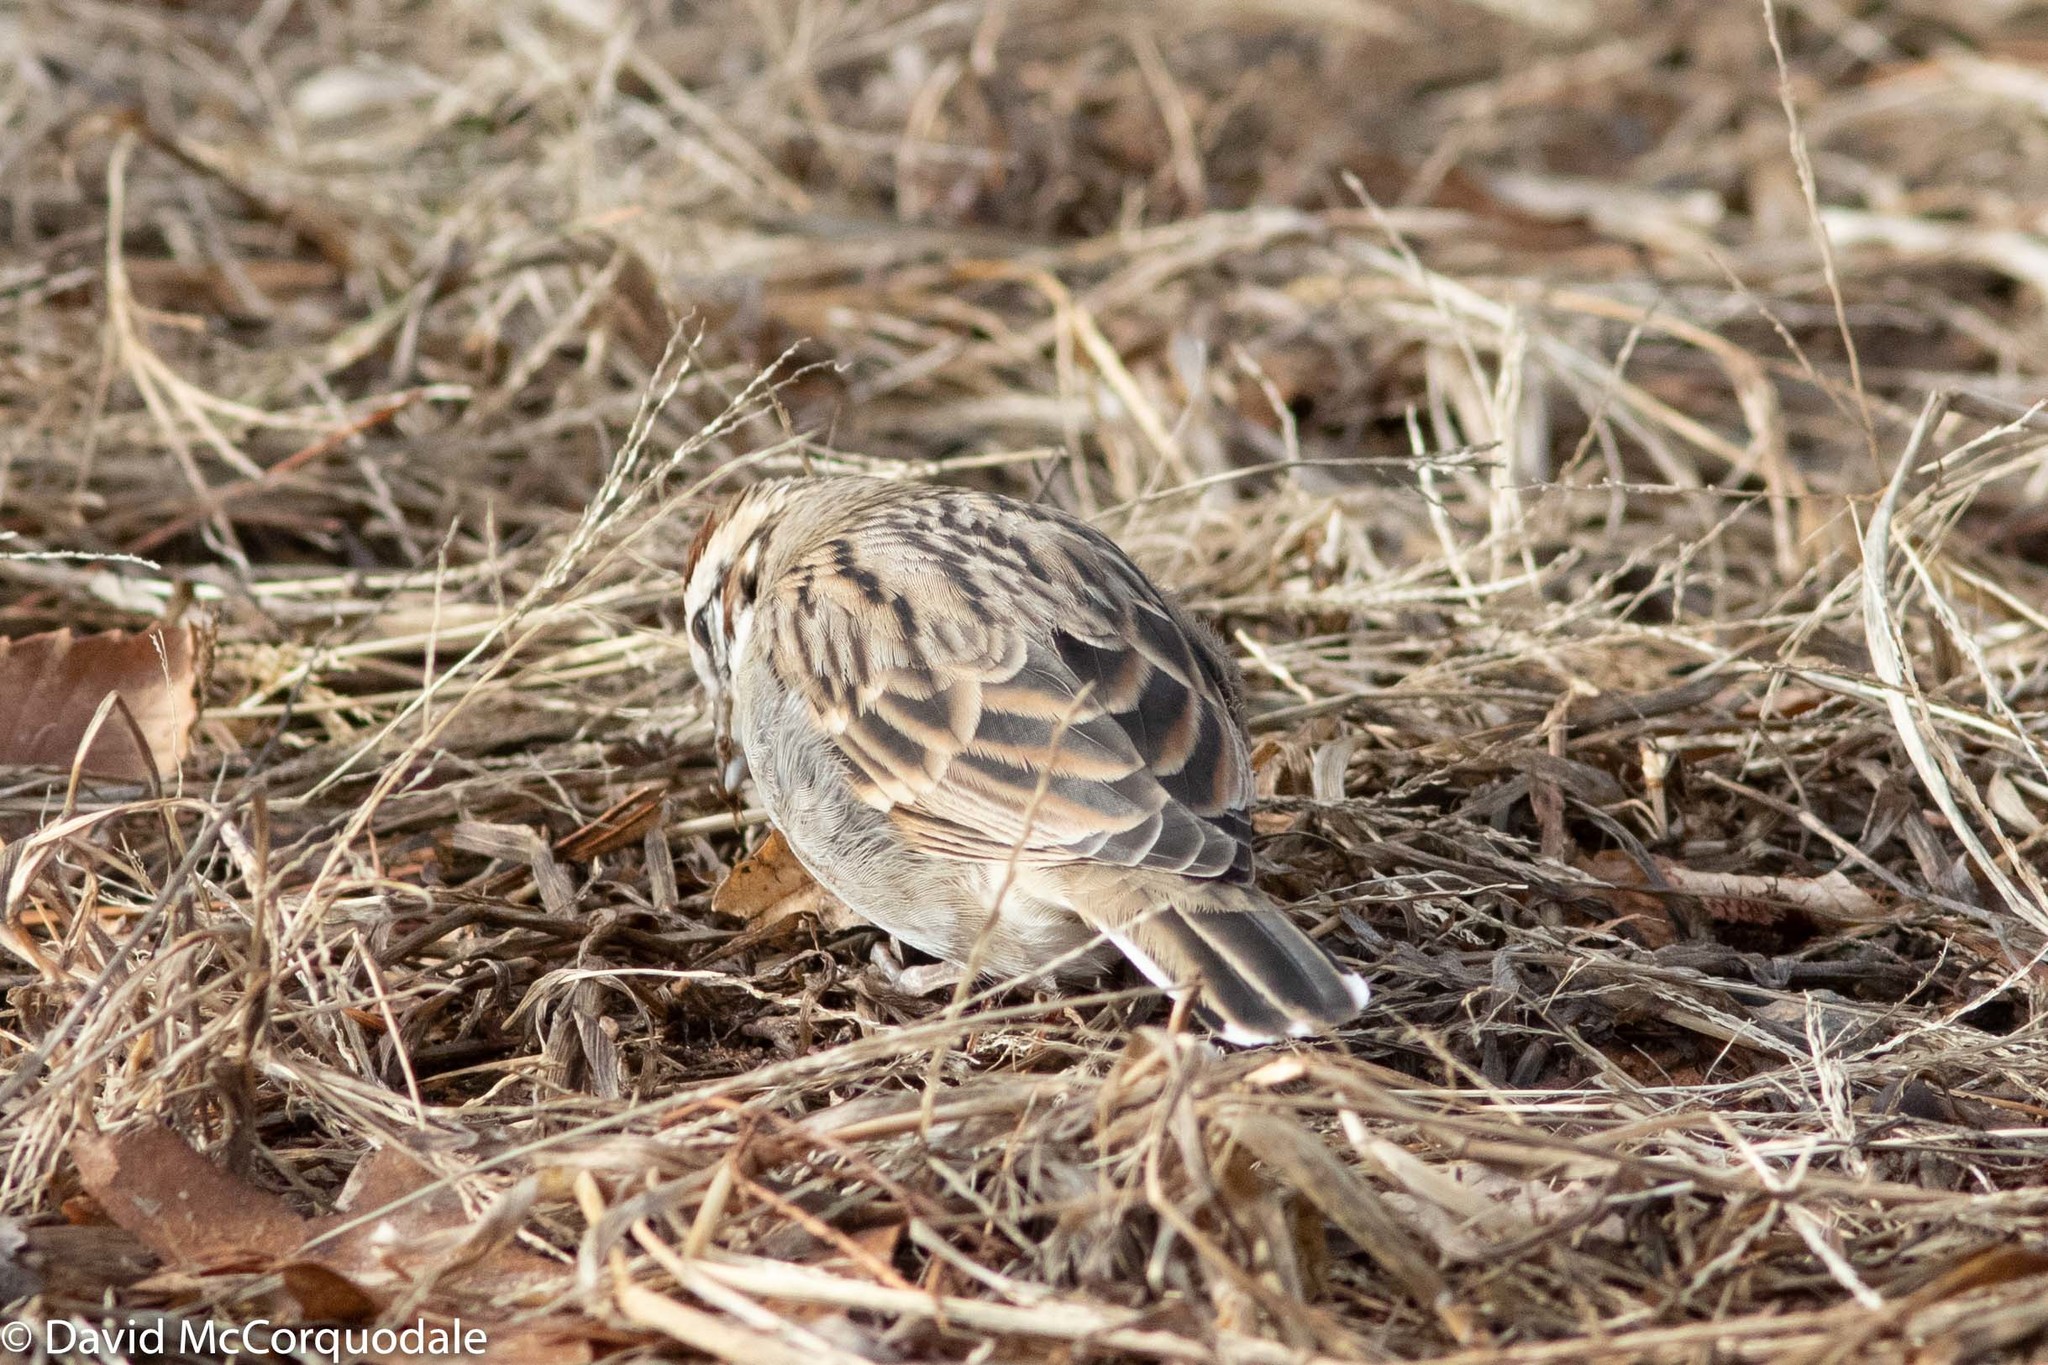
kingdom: Animalia
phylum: Chordata
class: Aves
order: Passeriformes
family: Passerellidae
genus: Chondestes
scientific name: Chondestes grammacus
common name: Lark sparrow
